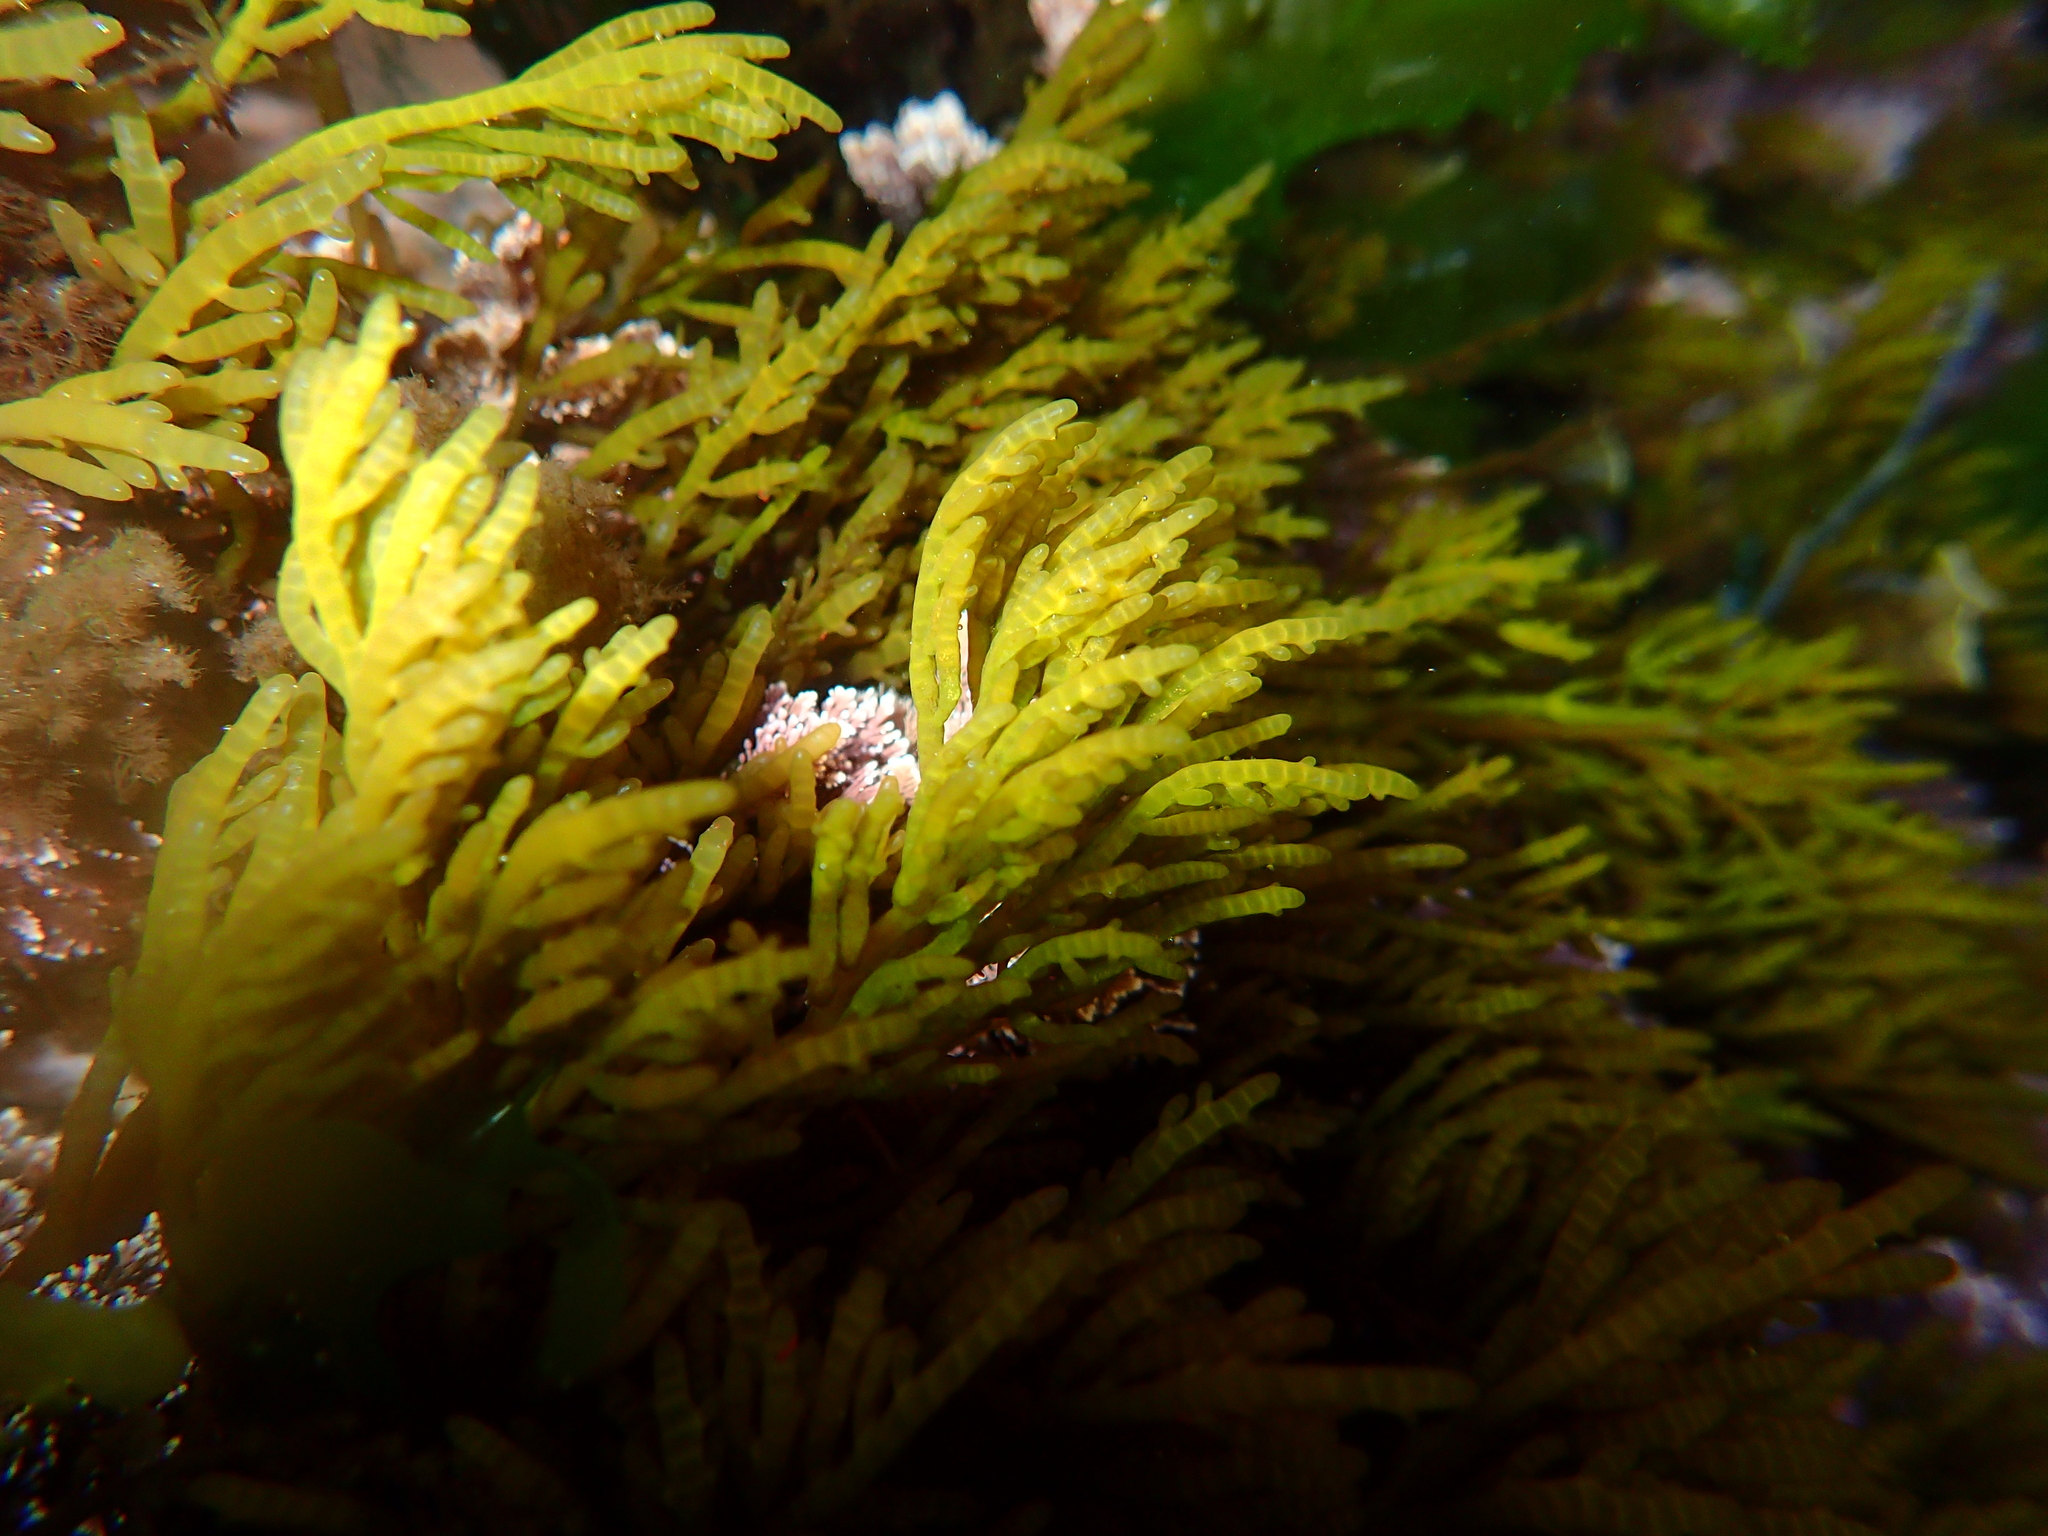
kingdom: Plantae
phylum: Rhodophyta
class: Florideophyceae
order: Rhodymeniales
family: Champiaceae
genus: Champia
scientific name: Champia novae-zelandiae
